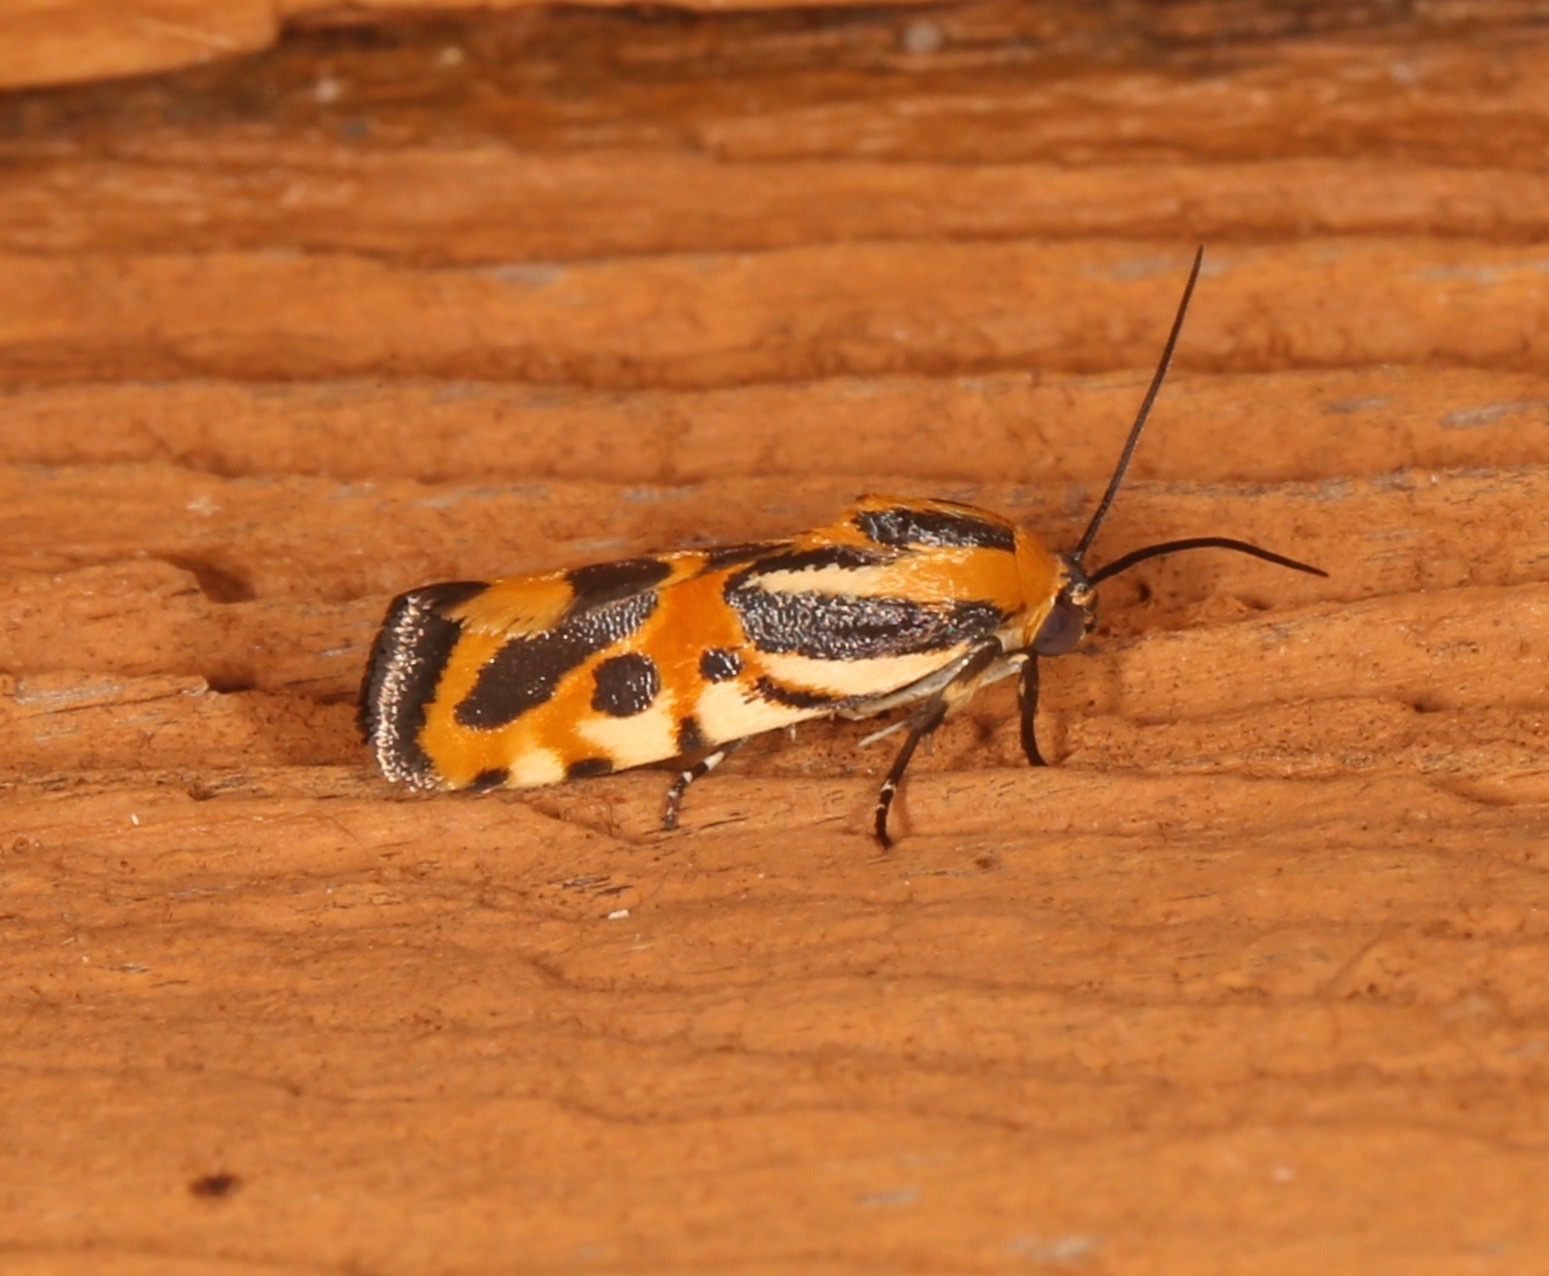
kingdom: Animalia
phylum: Arthropoda
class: Insecta
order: Lepidoptera
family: Noctuidae
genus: Acontia
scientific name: Acontia onagrus
